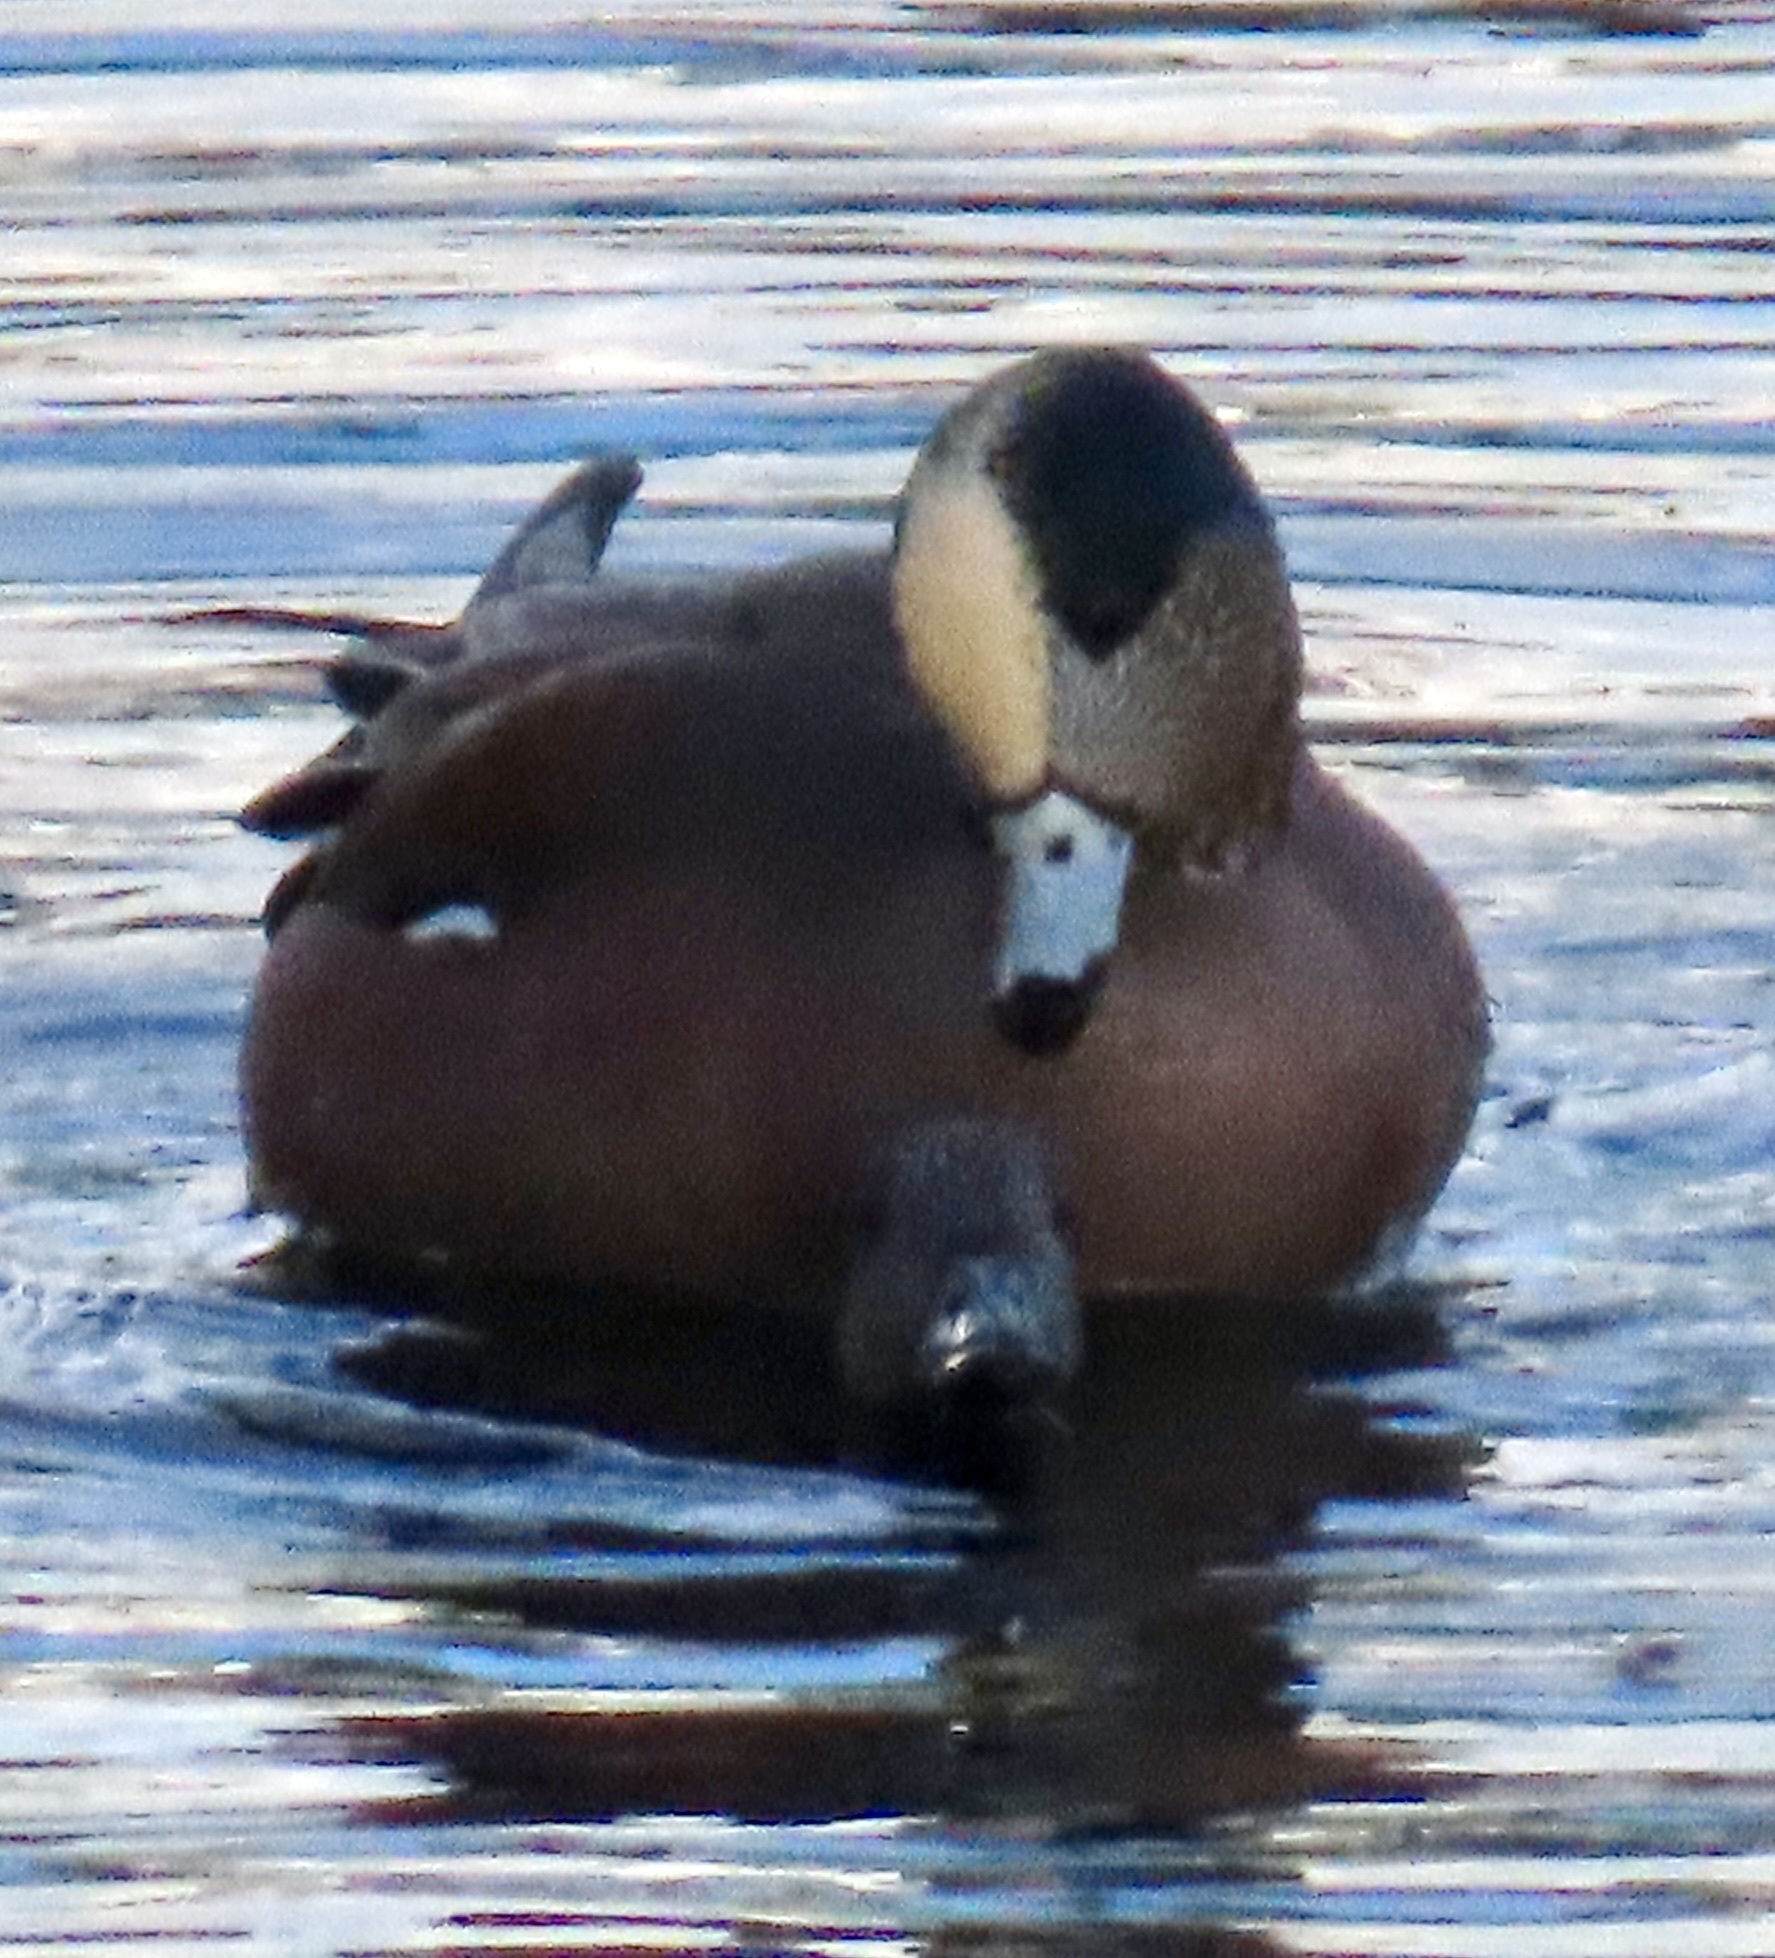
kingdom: Animalia
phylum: Chordata
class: Aves
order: Anseriformes
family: Anatidae
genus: Mareca
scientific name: Mareca americana
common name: American wigeon
